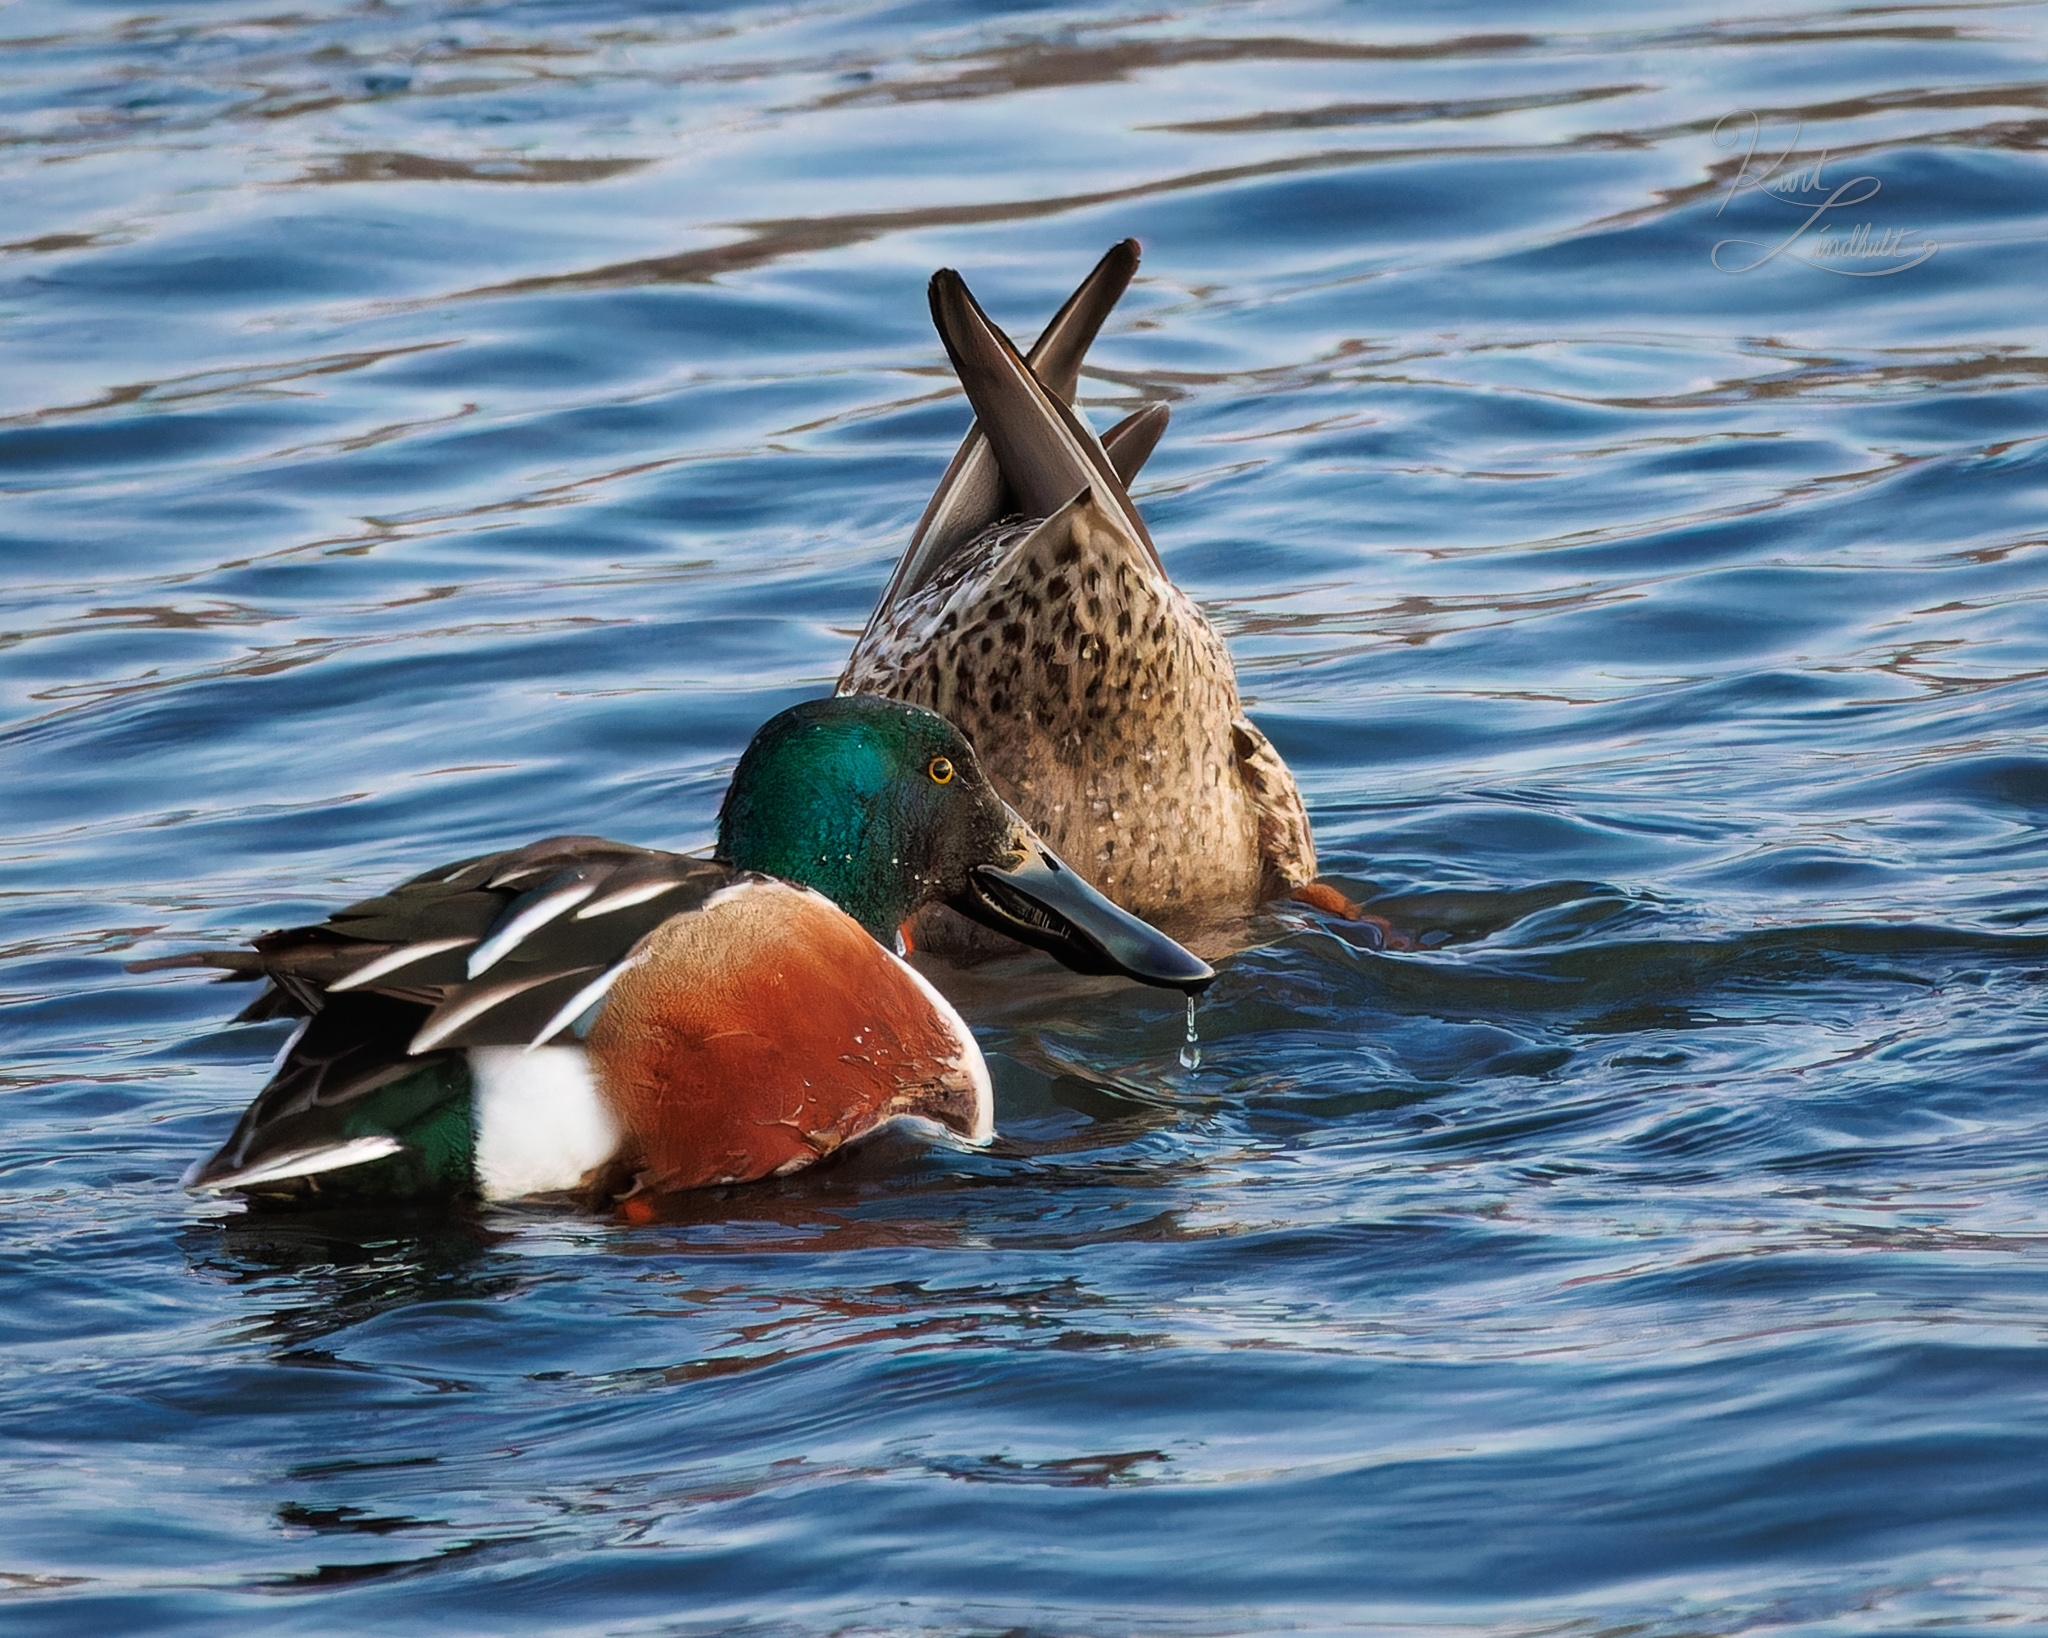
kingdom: Animalia
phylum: Chordata
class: Aves
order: Anseriformes
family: Anatidae
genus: Spatula
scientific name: Spatula clypeata
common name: Northern shoveler
